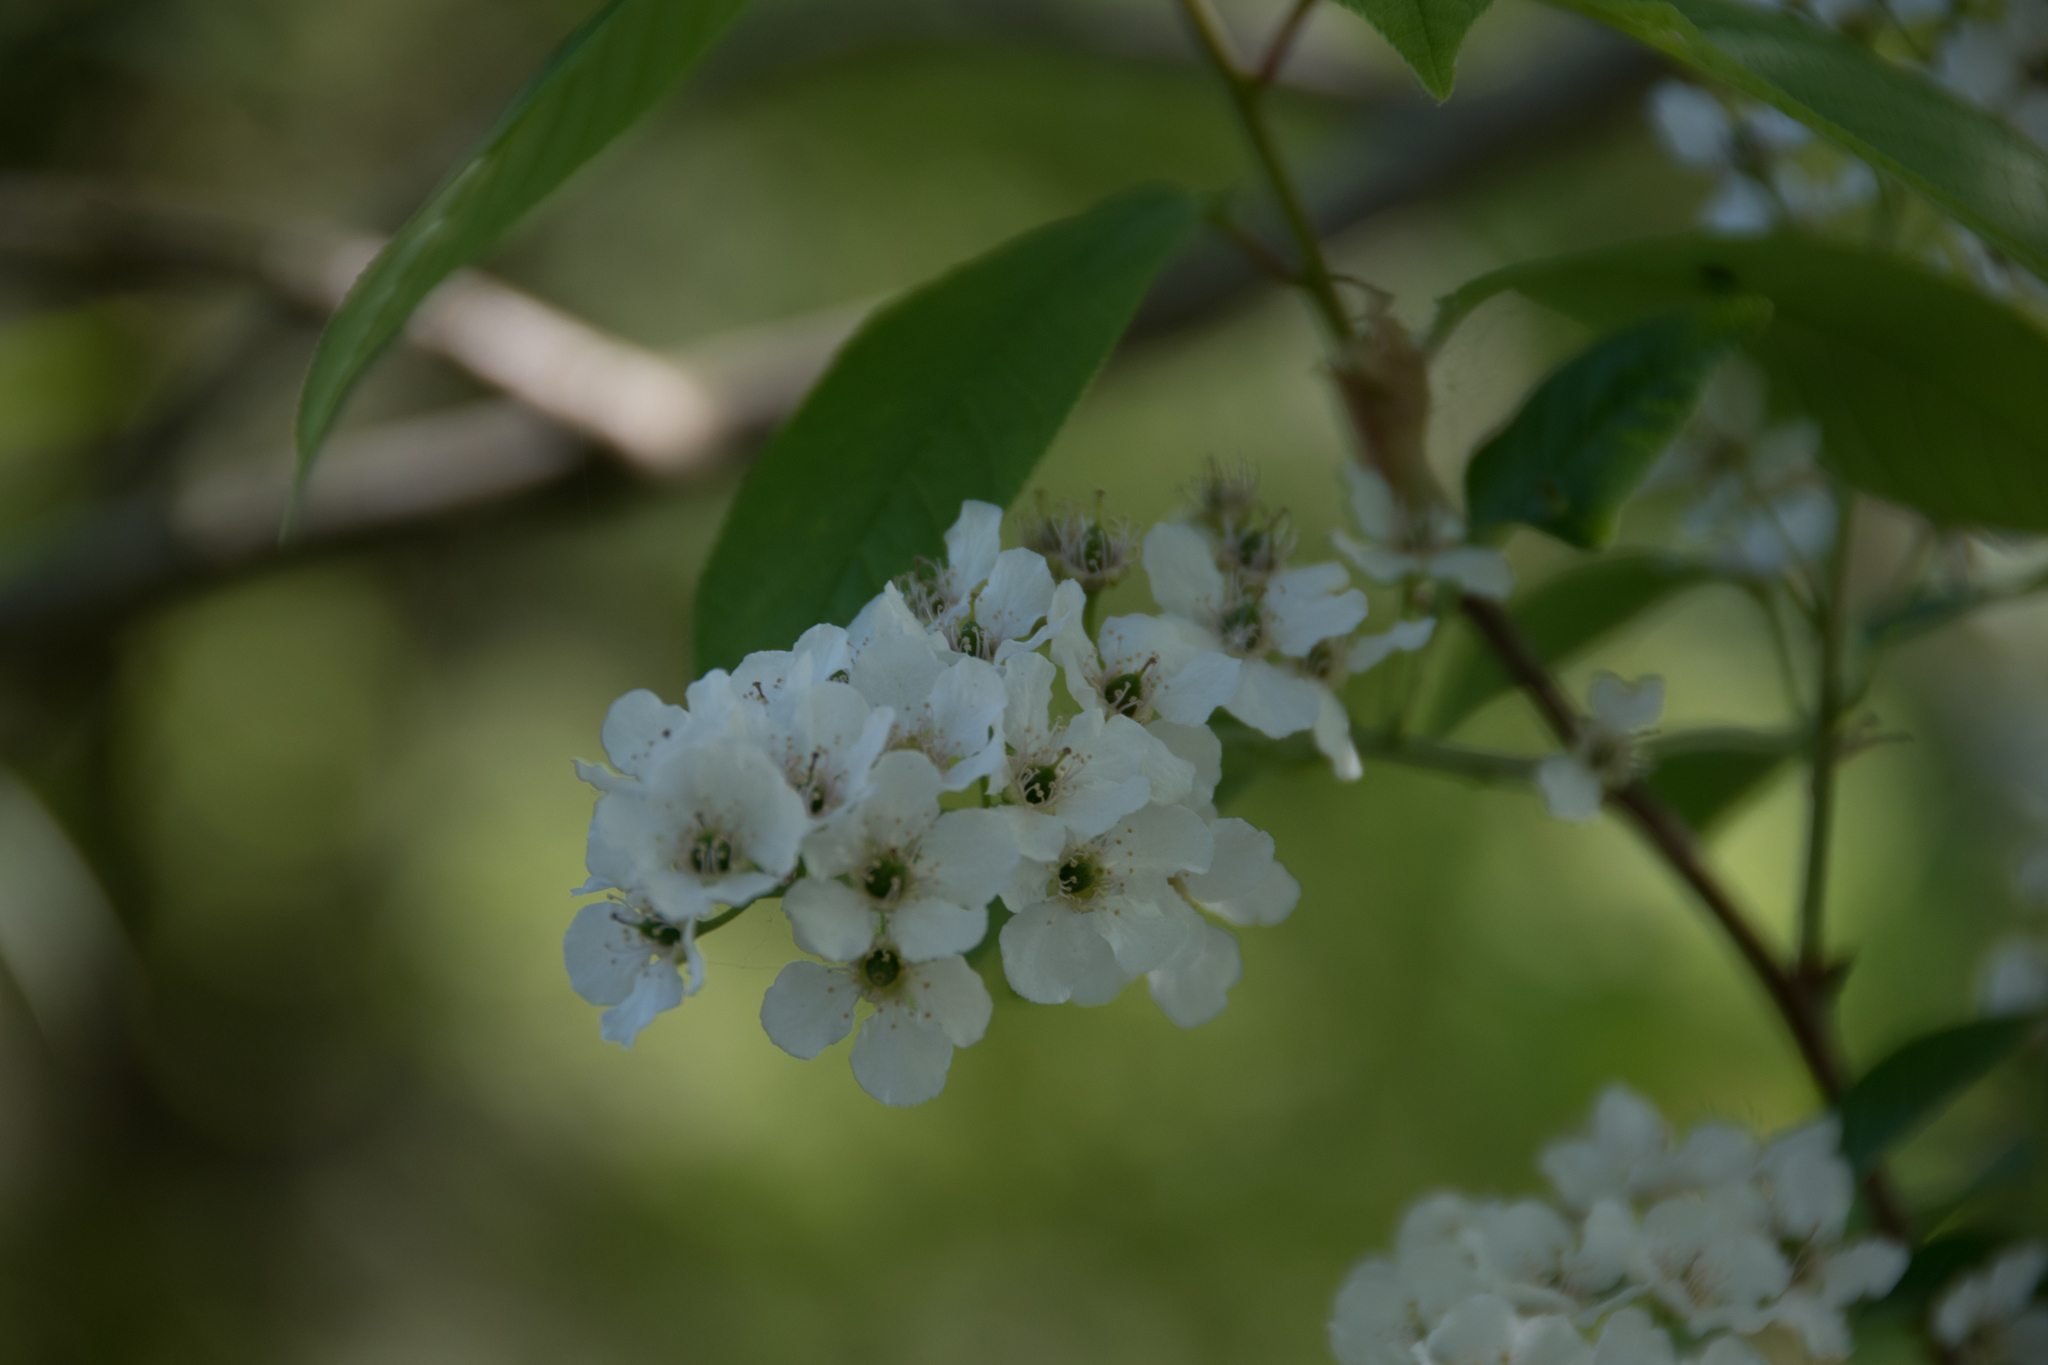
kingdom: Plantae
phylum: Tracheophyta
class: Magnoliopsida
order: Rosales
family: Rosaceae
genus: Prunus
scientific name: Prunus padus
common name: Bird cherry
